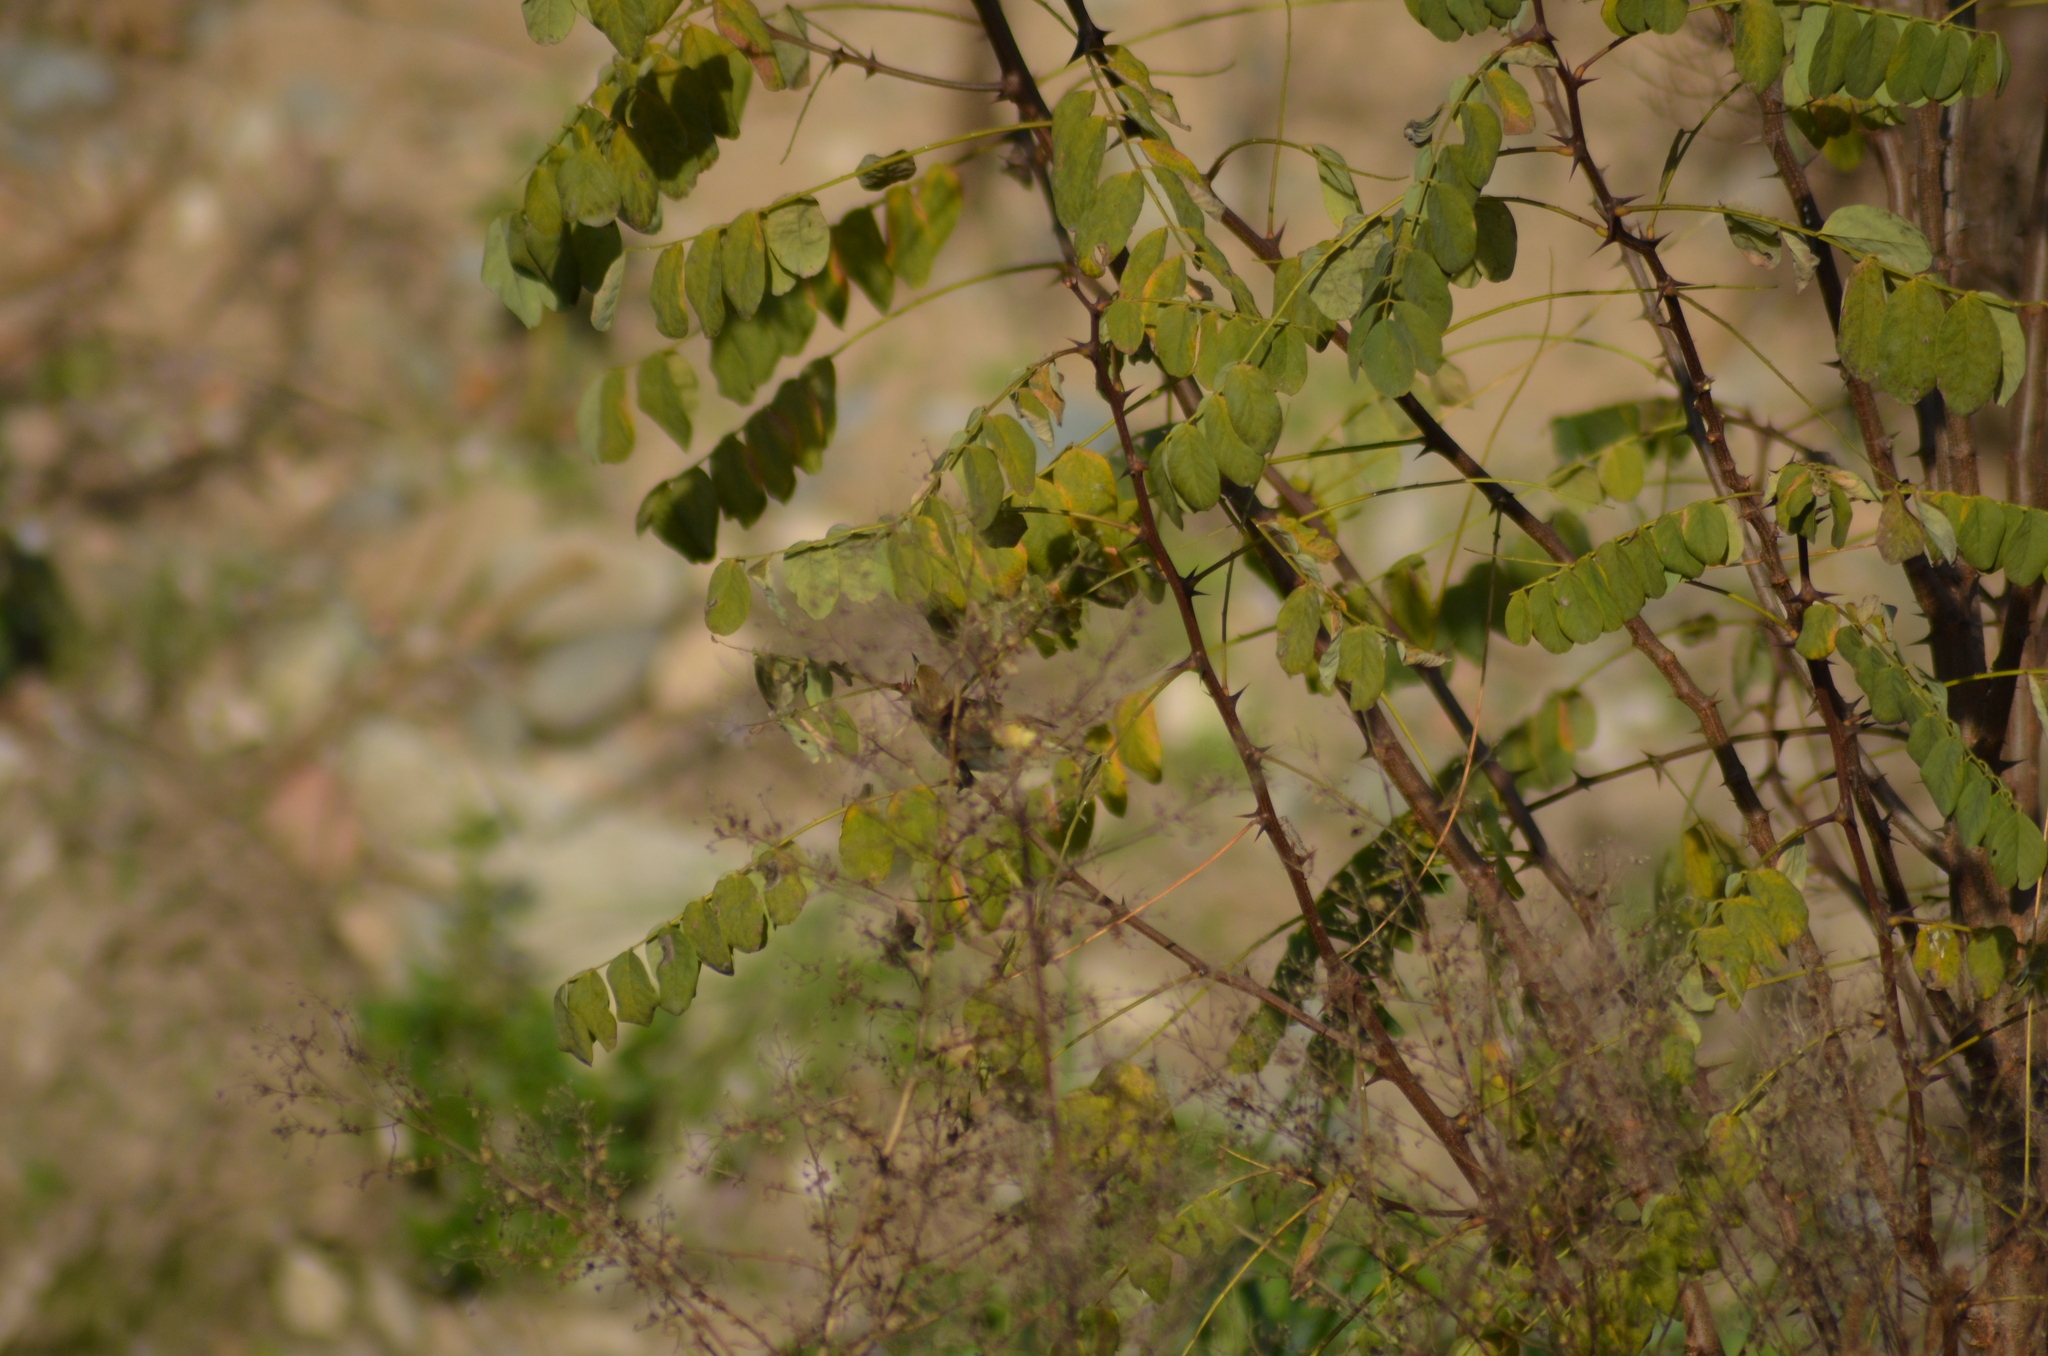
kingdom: Animalia
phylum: Chordata
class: Aves
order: Passeriformes
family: Phylloscopidae
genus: Phylloscopus
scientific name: Phylloscopus collybita
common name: Common chiffchaff
